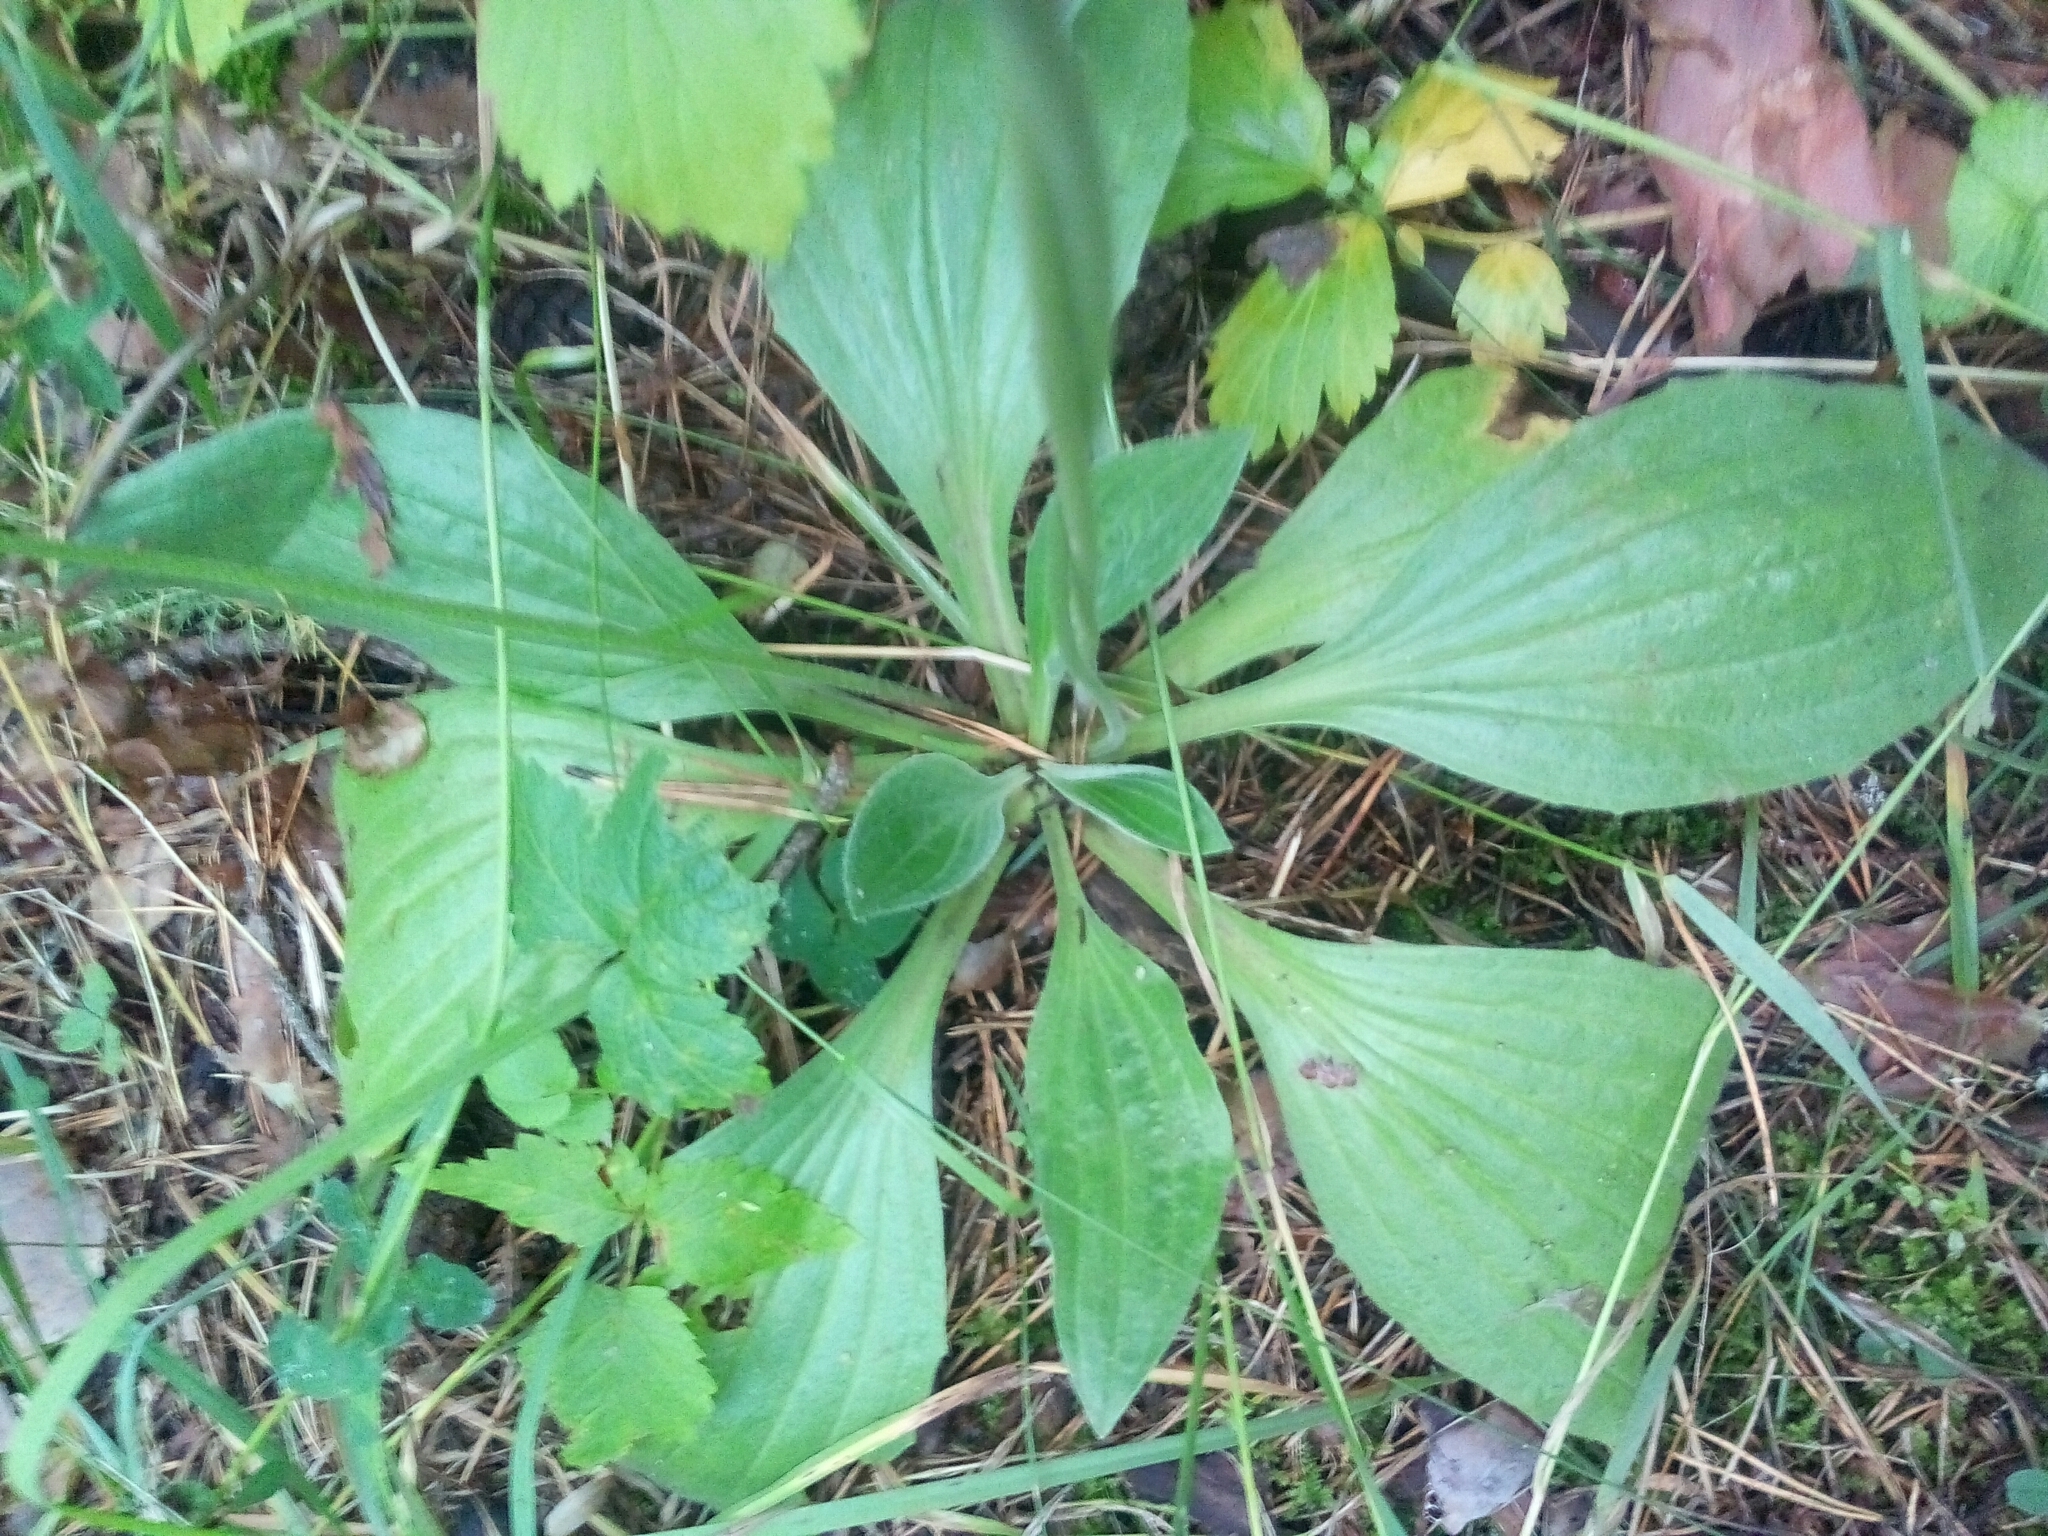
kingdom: Plantae
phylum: Tracheophyta
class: Magnoliopsida
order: Lamiales
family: Plantaginaceae
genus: Plantago
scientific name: Plantago media
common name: Hoary plantain
